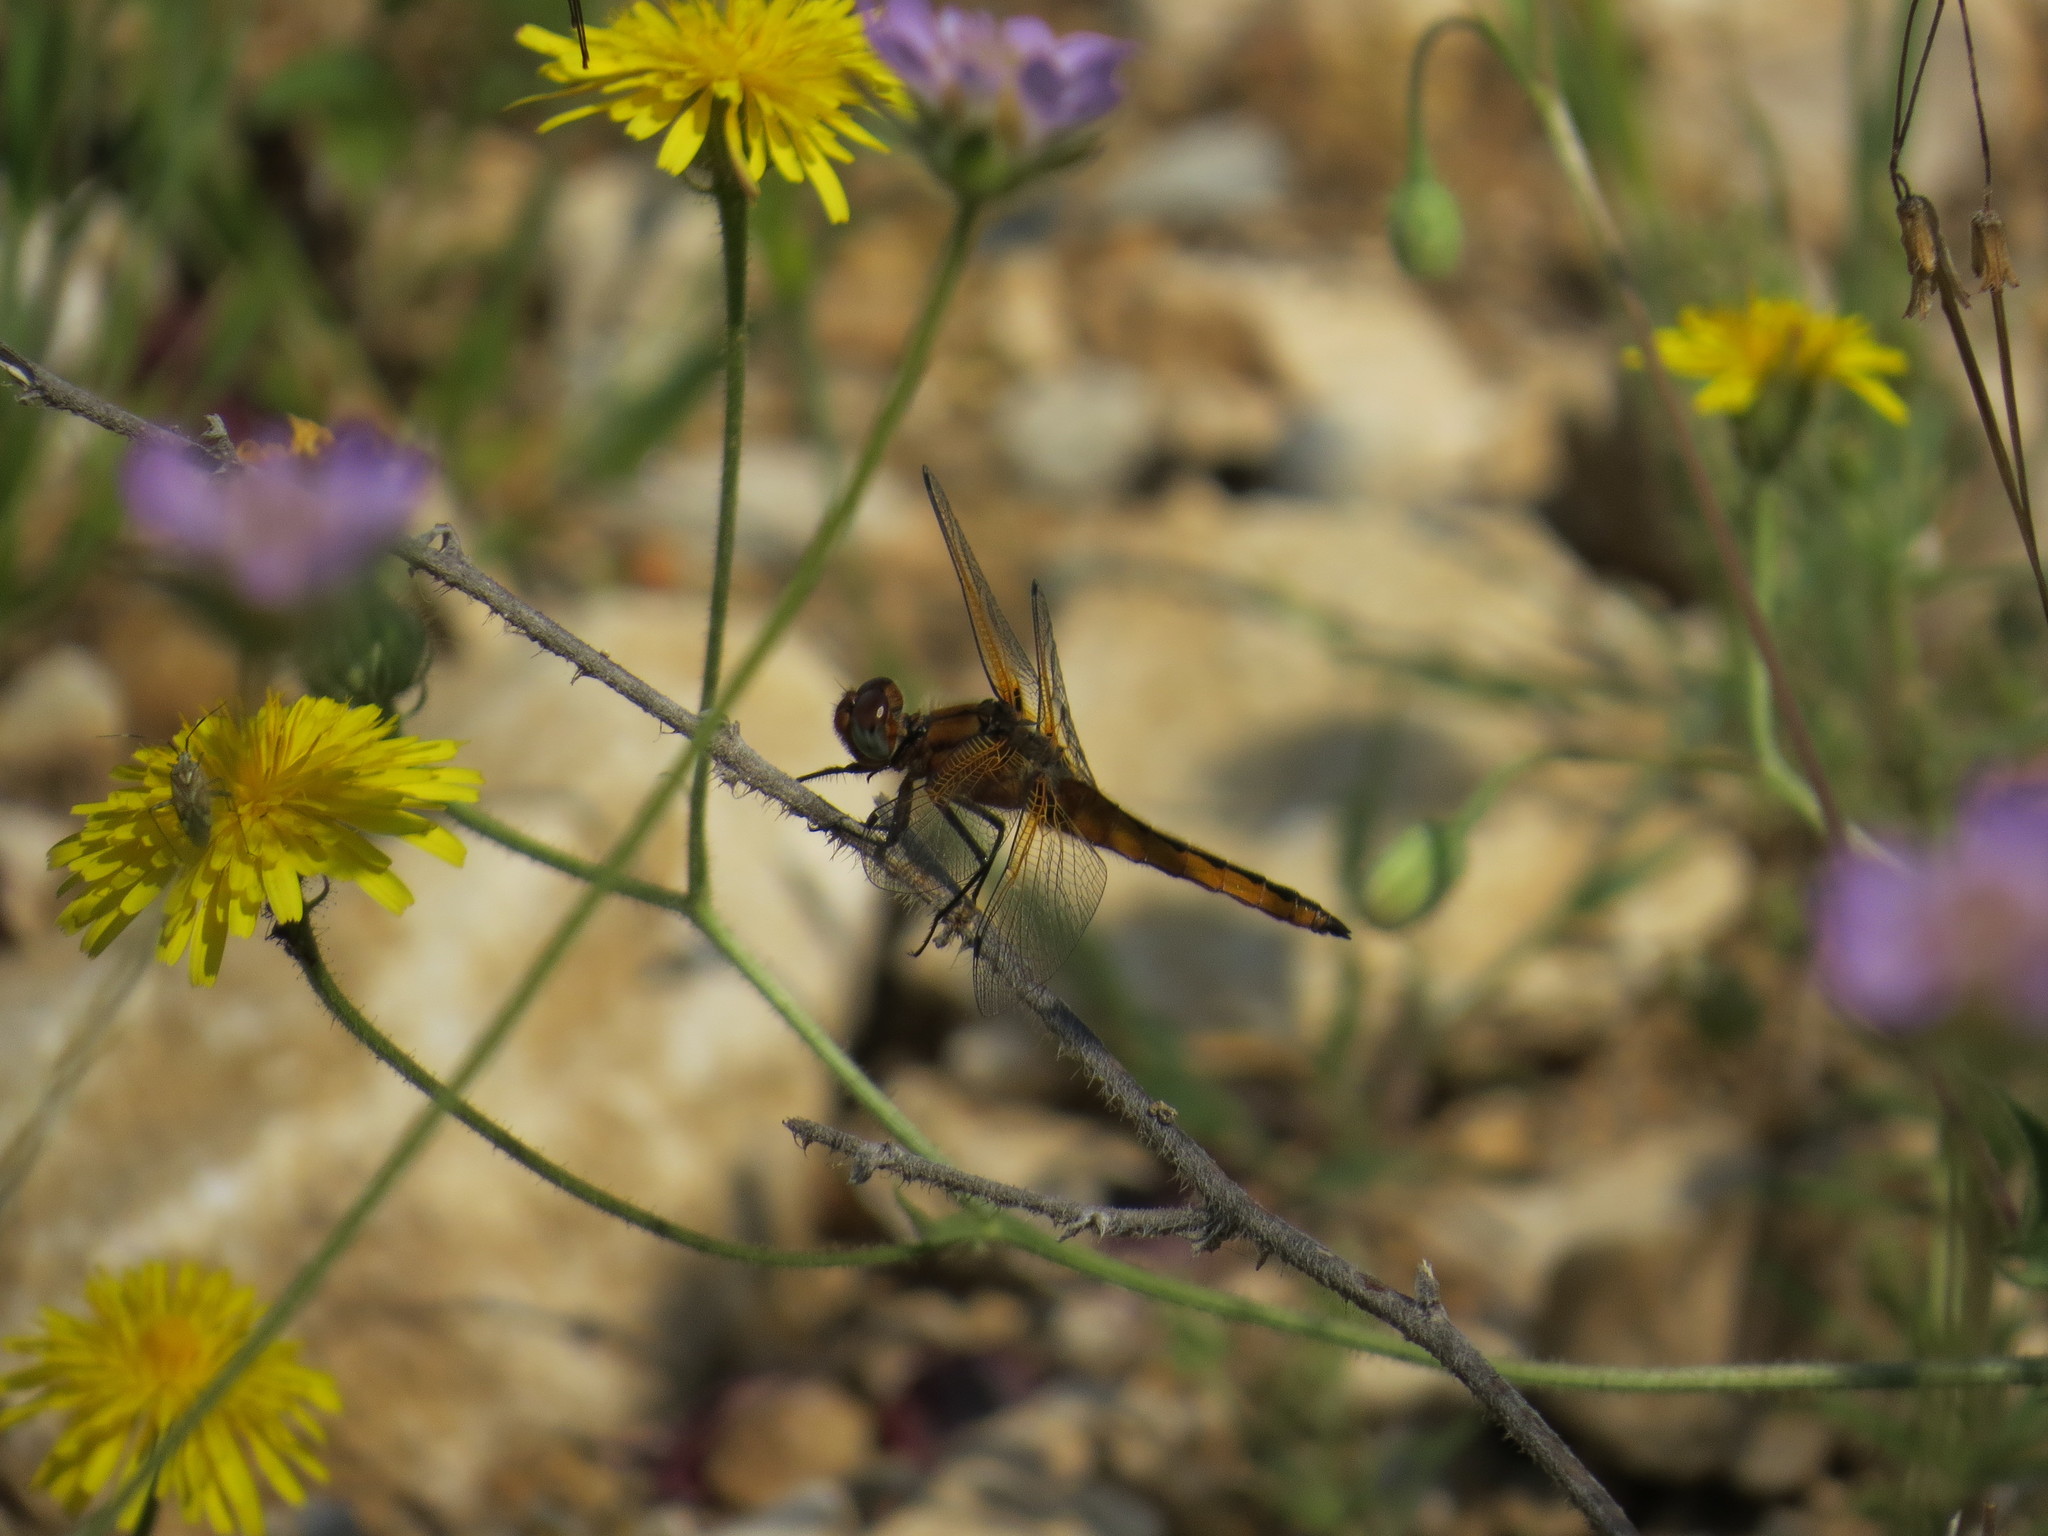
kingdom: Animalia
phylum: Arthropoda
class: Insecta
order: Odonata
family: Libellulidae
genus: Libellula
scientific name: Libellula fulva
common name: Blue chaser
